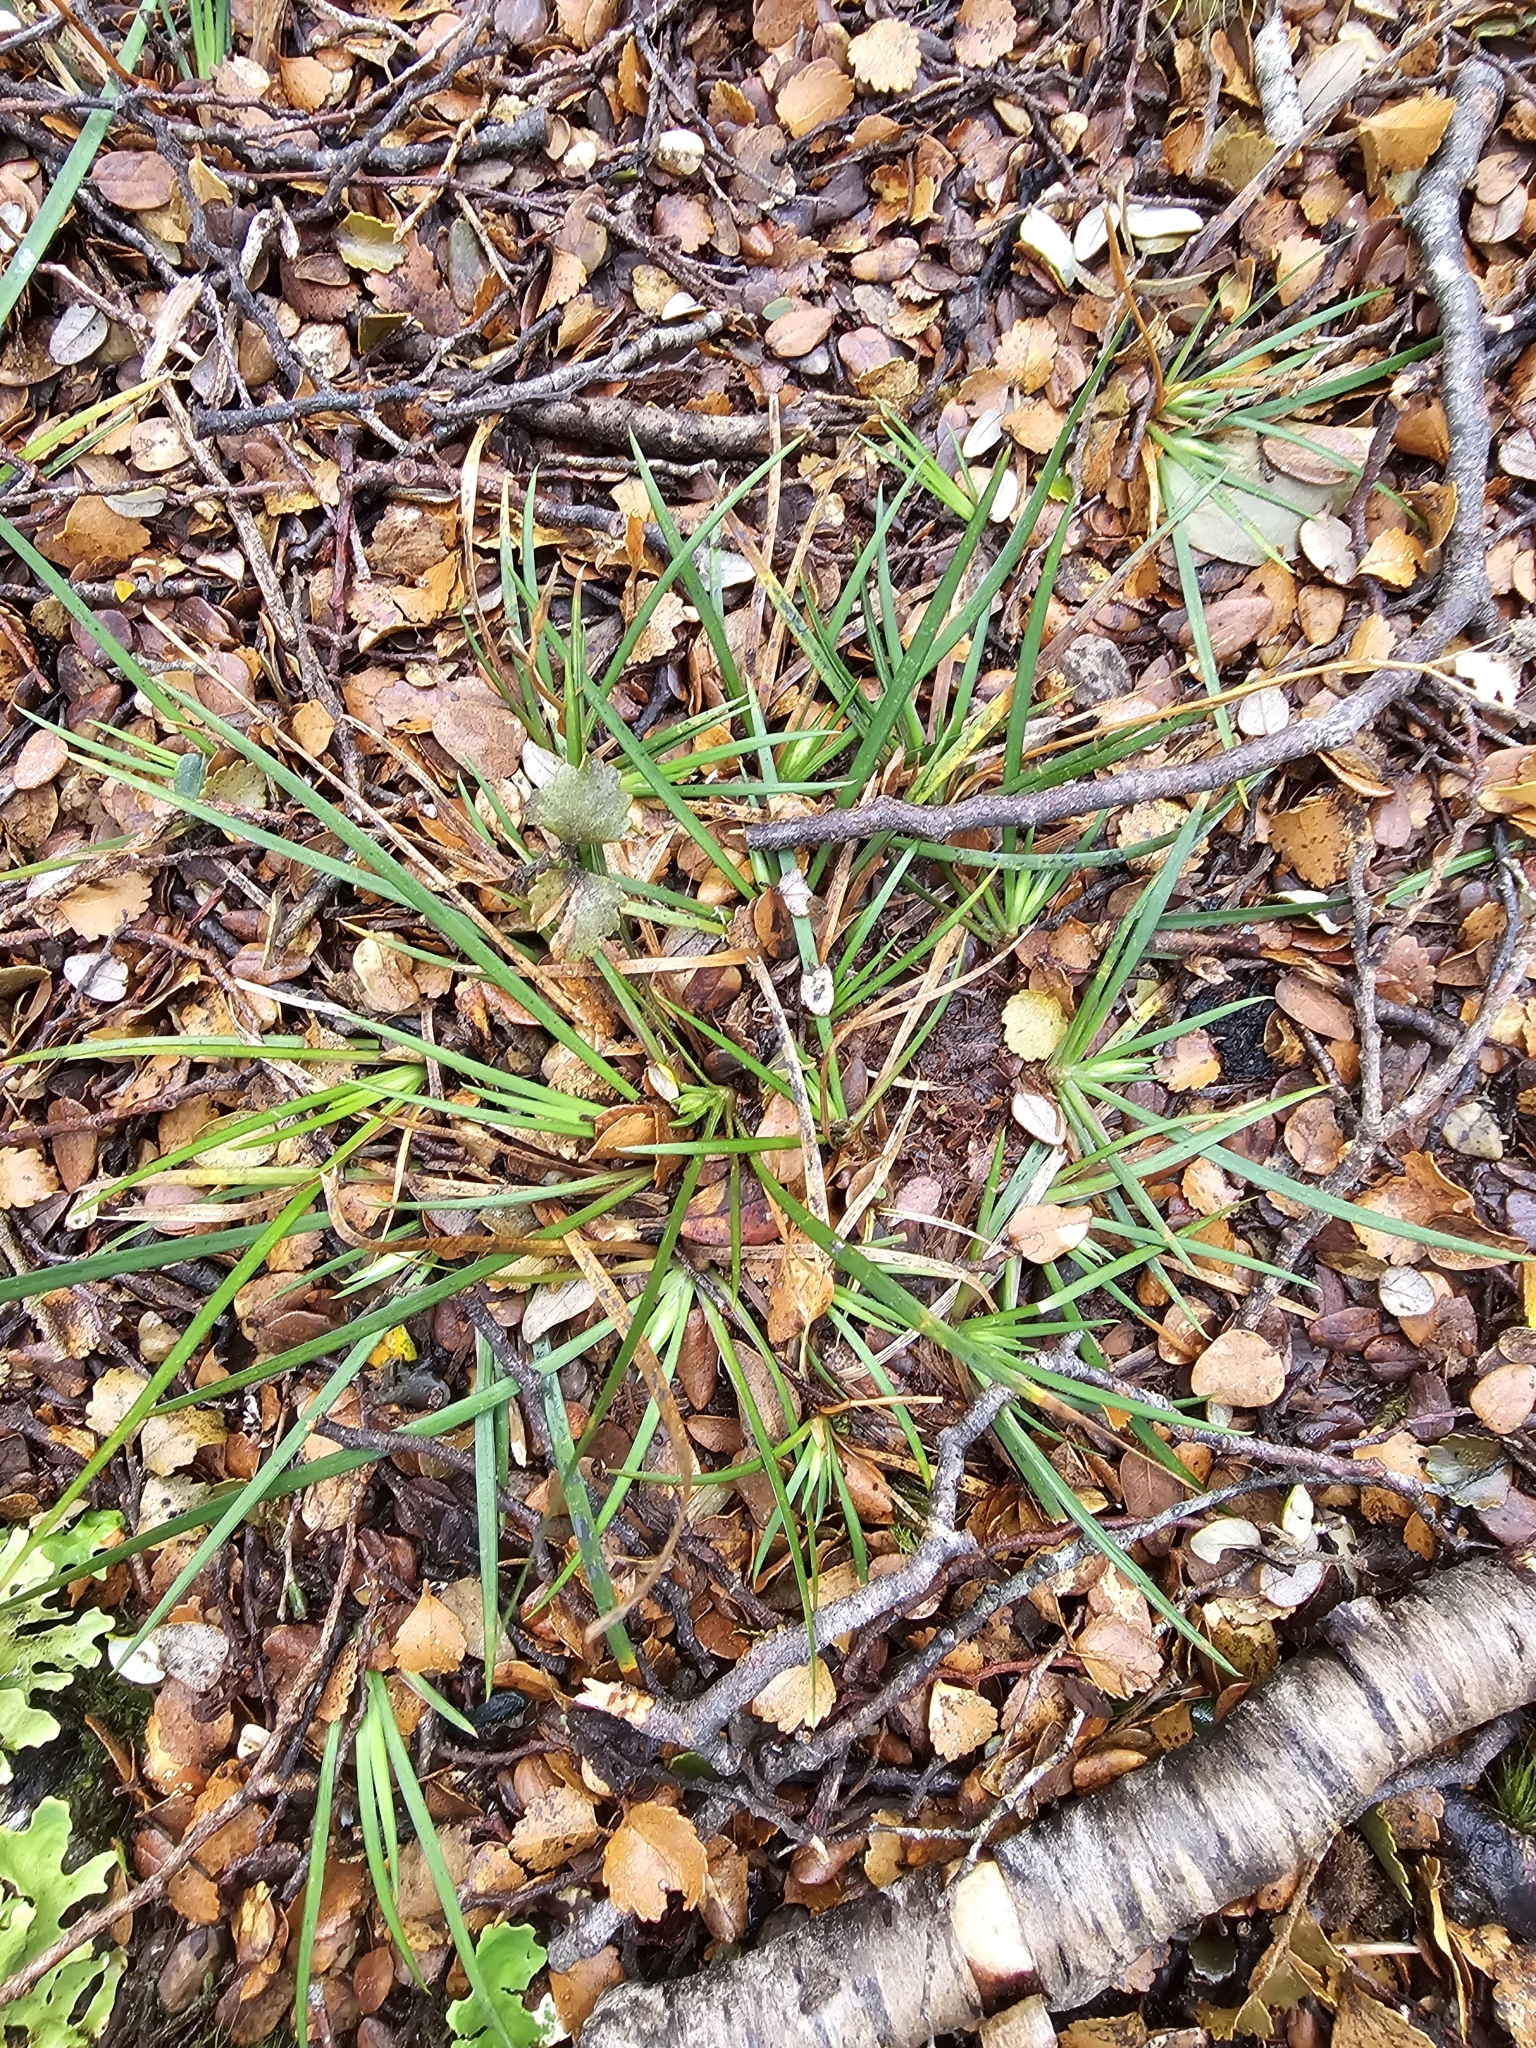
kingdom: Plantae
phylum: Tracheophyta
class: Liliopsida
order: Asparagales
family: Iridaceae
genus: Libertia
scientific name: Libertia micrantha
